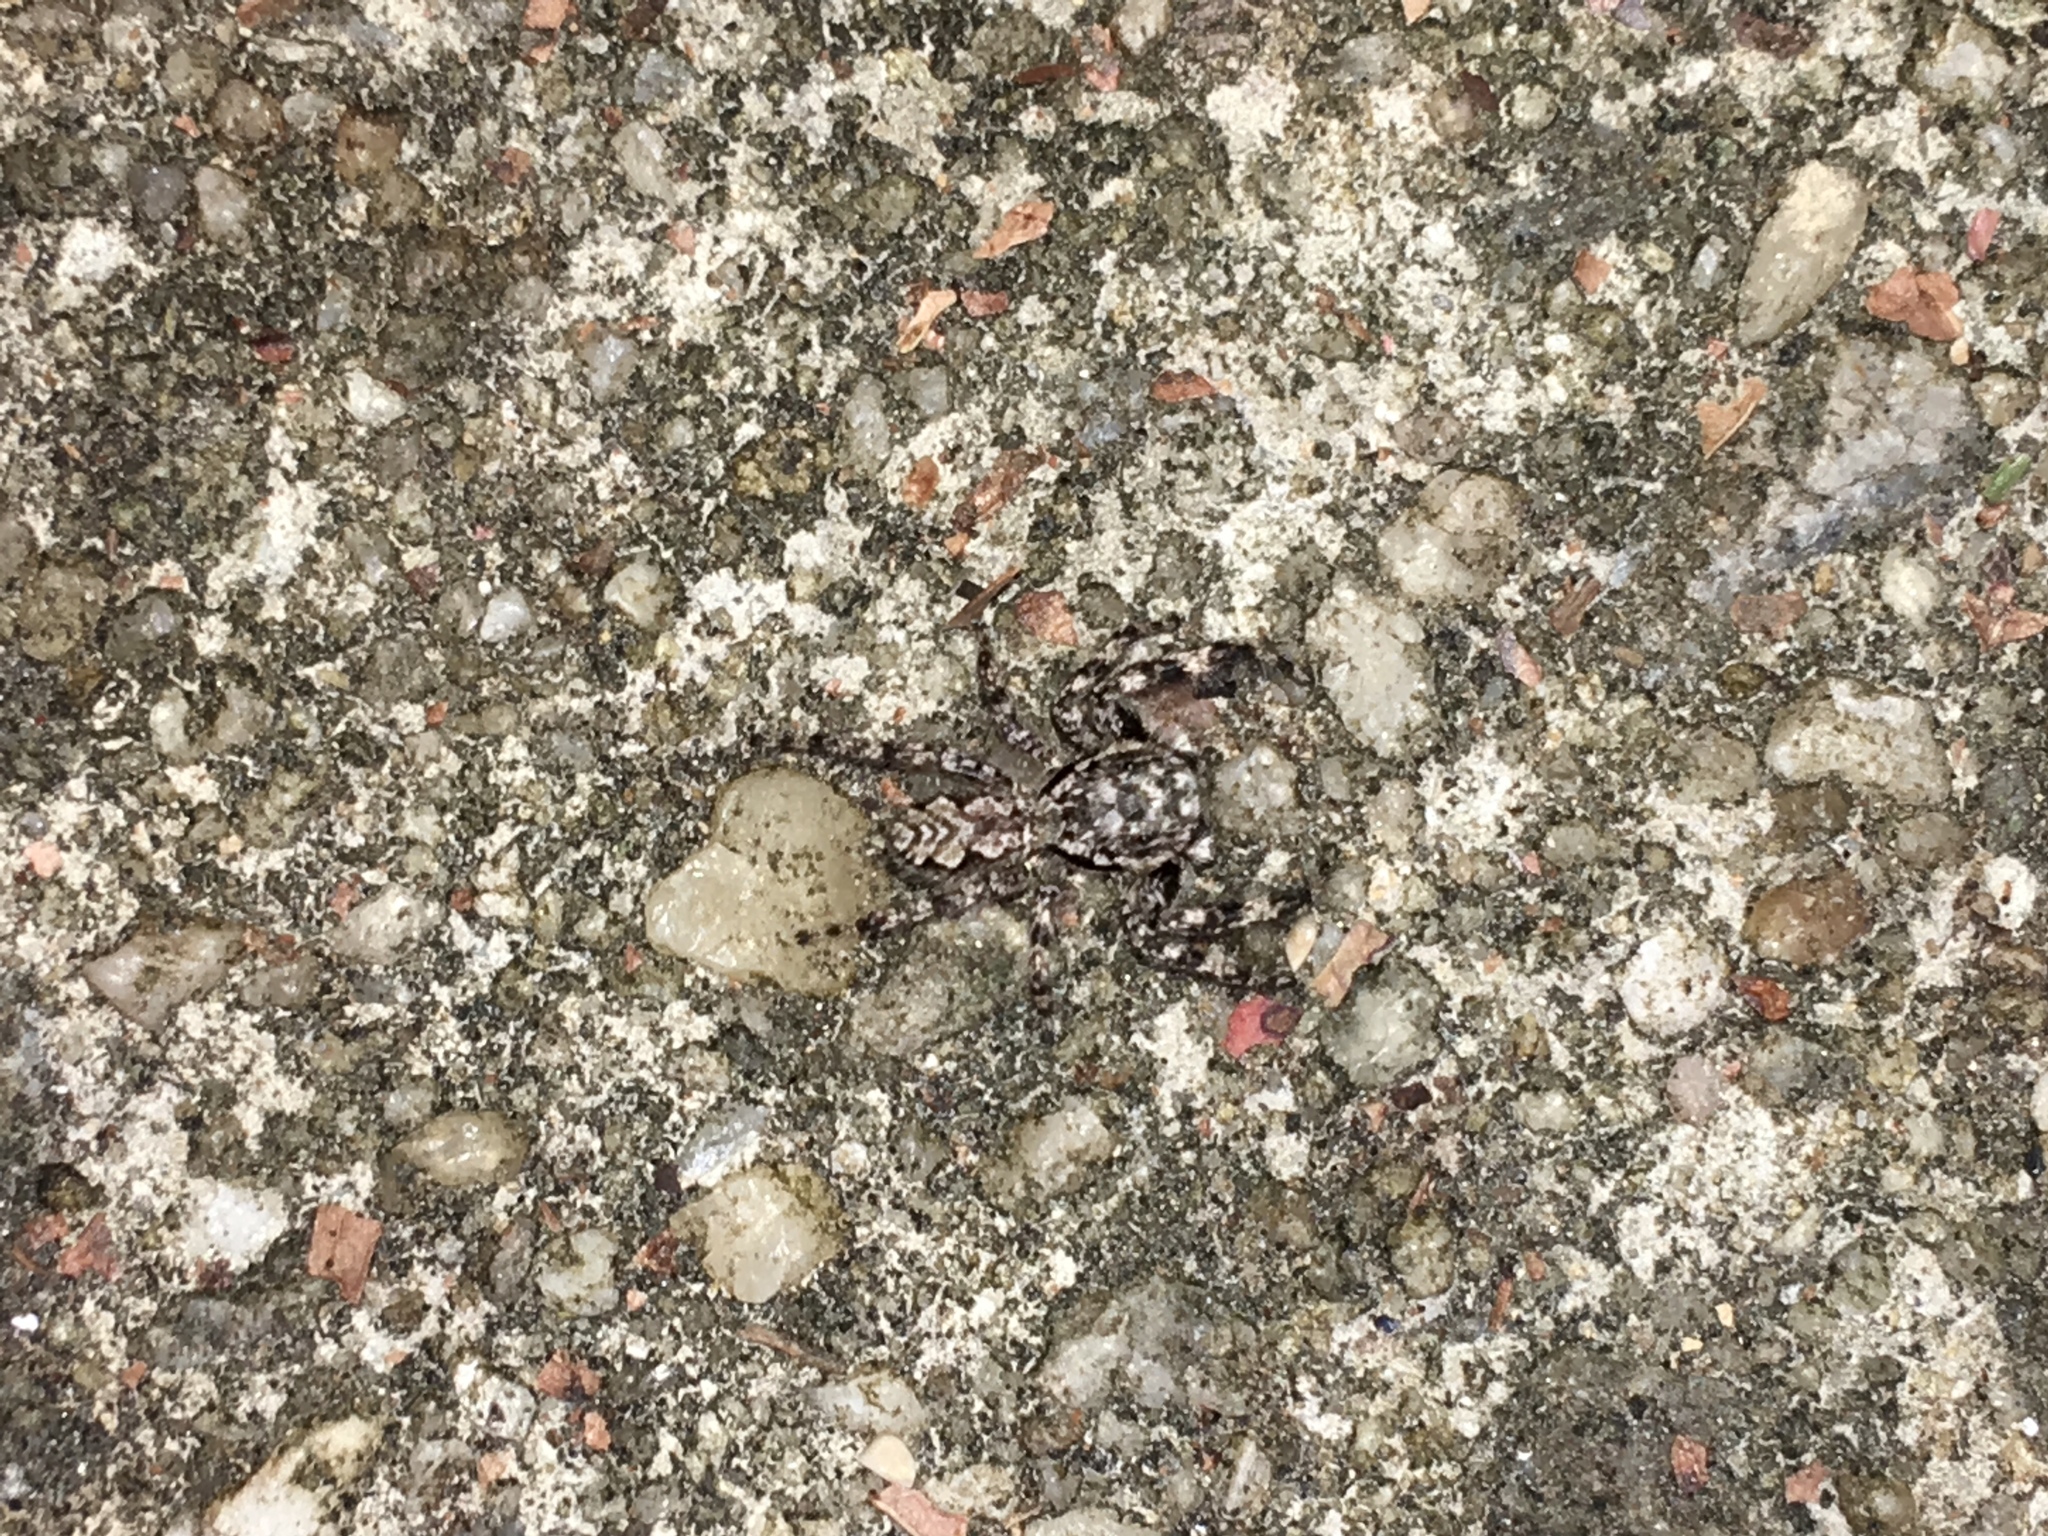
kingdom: Animalia
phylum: Arthropoda
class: Arachnida
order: Araneae
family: Salticidae
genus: Platycryptus
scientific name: Platycryptus undatus
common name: Tan jumping spider
